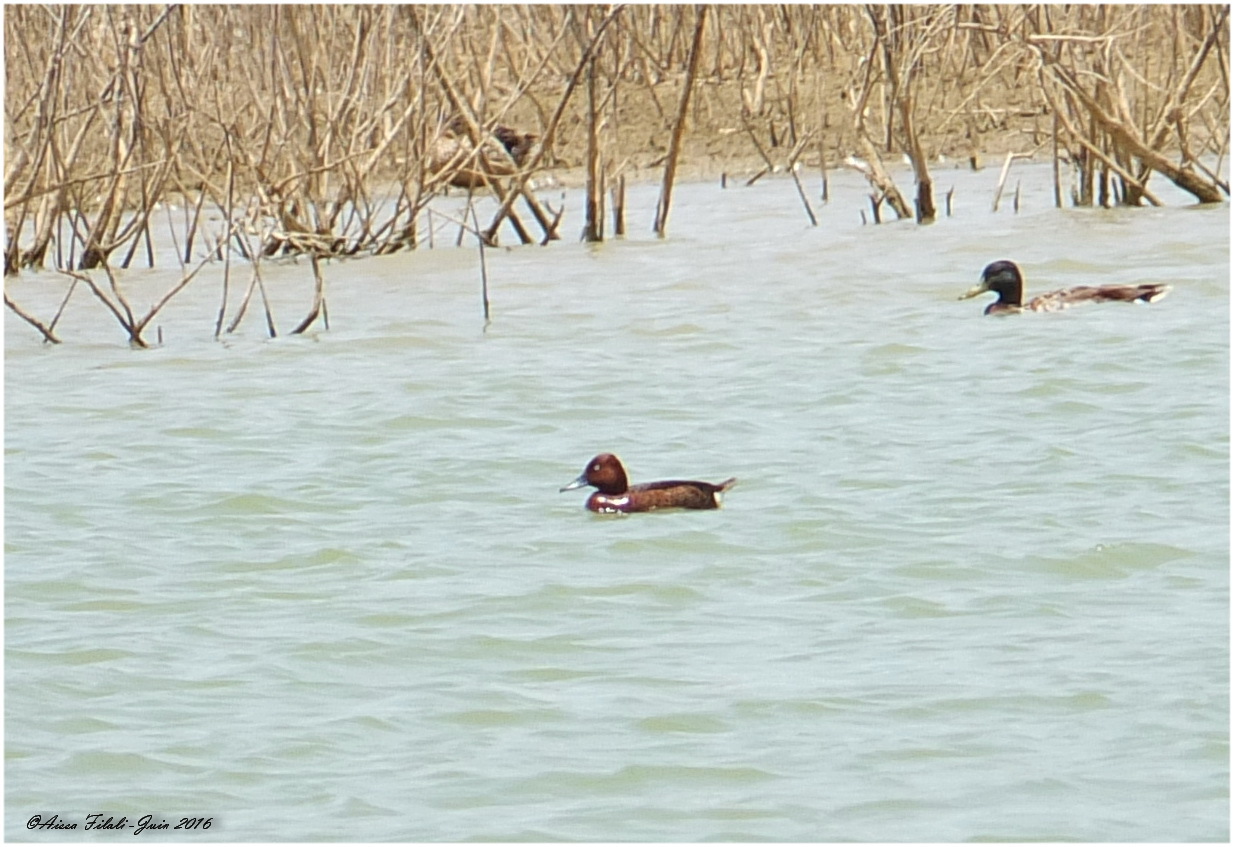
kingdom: Animalia
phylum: Chordata
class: Aves
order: Anseriformes
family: Anatidae
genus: Aythya
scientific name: Aythya nyroca
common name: Ferruginous duck
